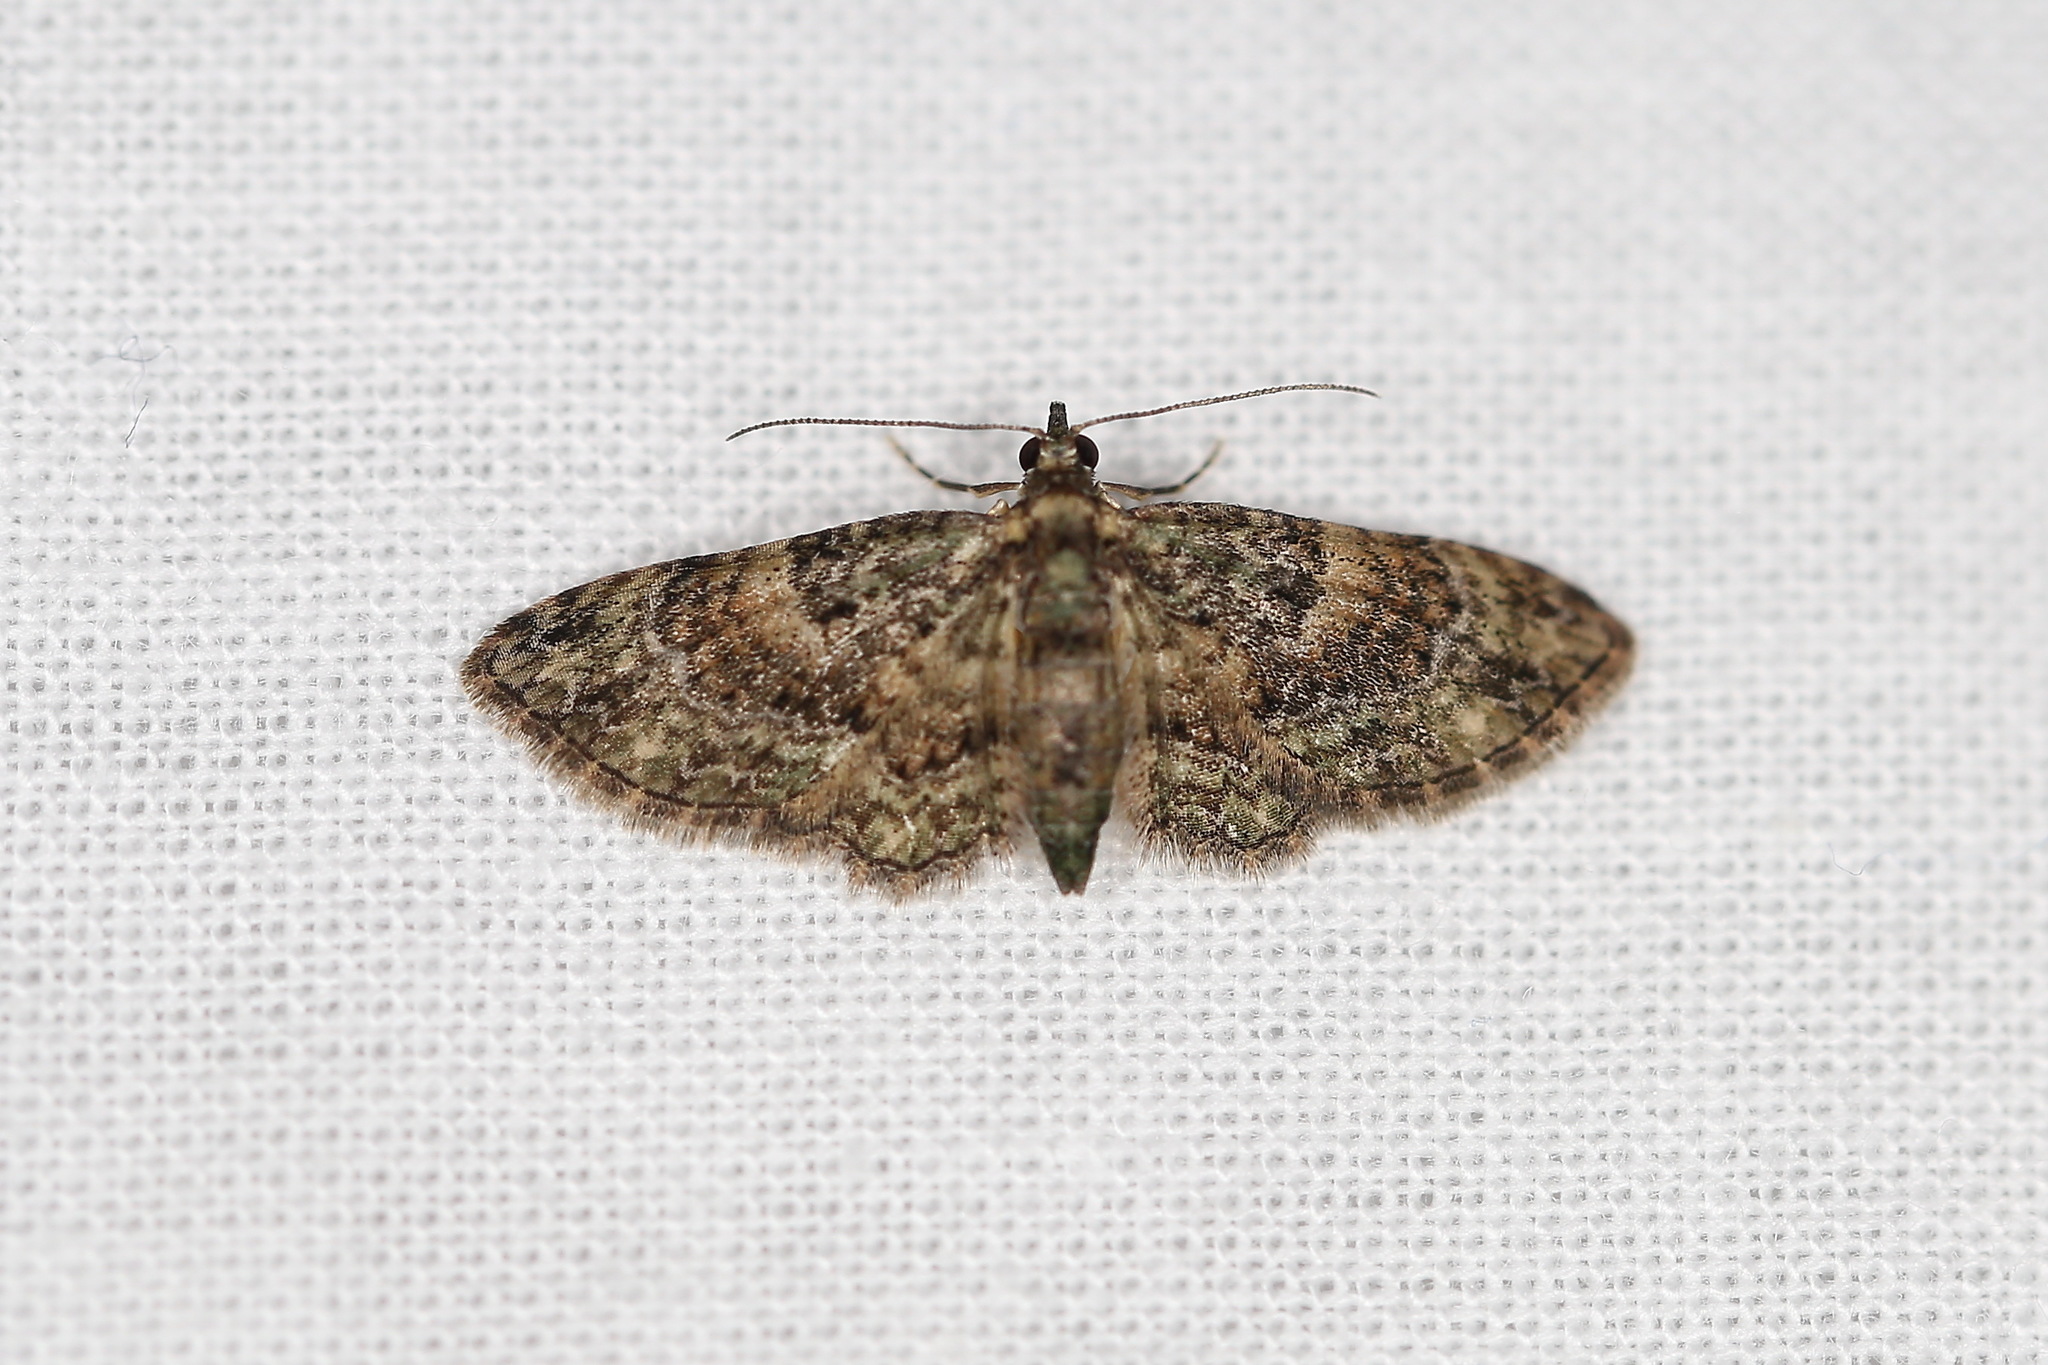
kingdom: Animalia
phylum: Arthropoda
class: Insecta
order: Lepidoptera
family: Geometridae
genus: Chloroclystis
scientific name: Chloroclystis catastreptes
